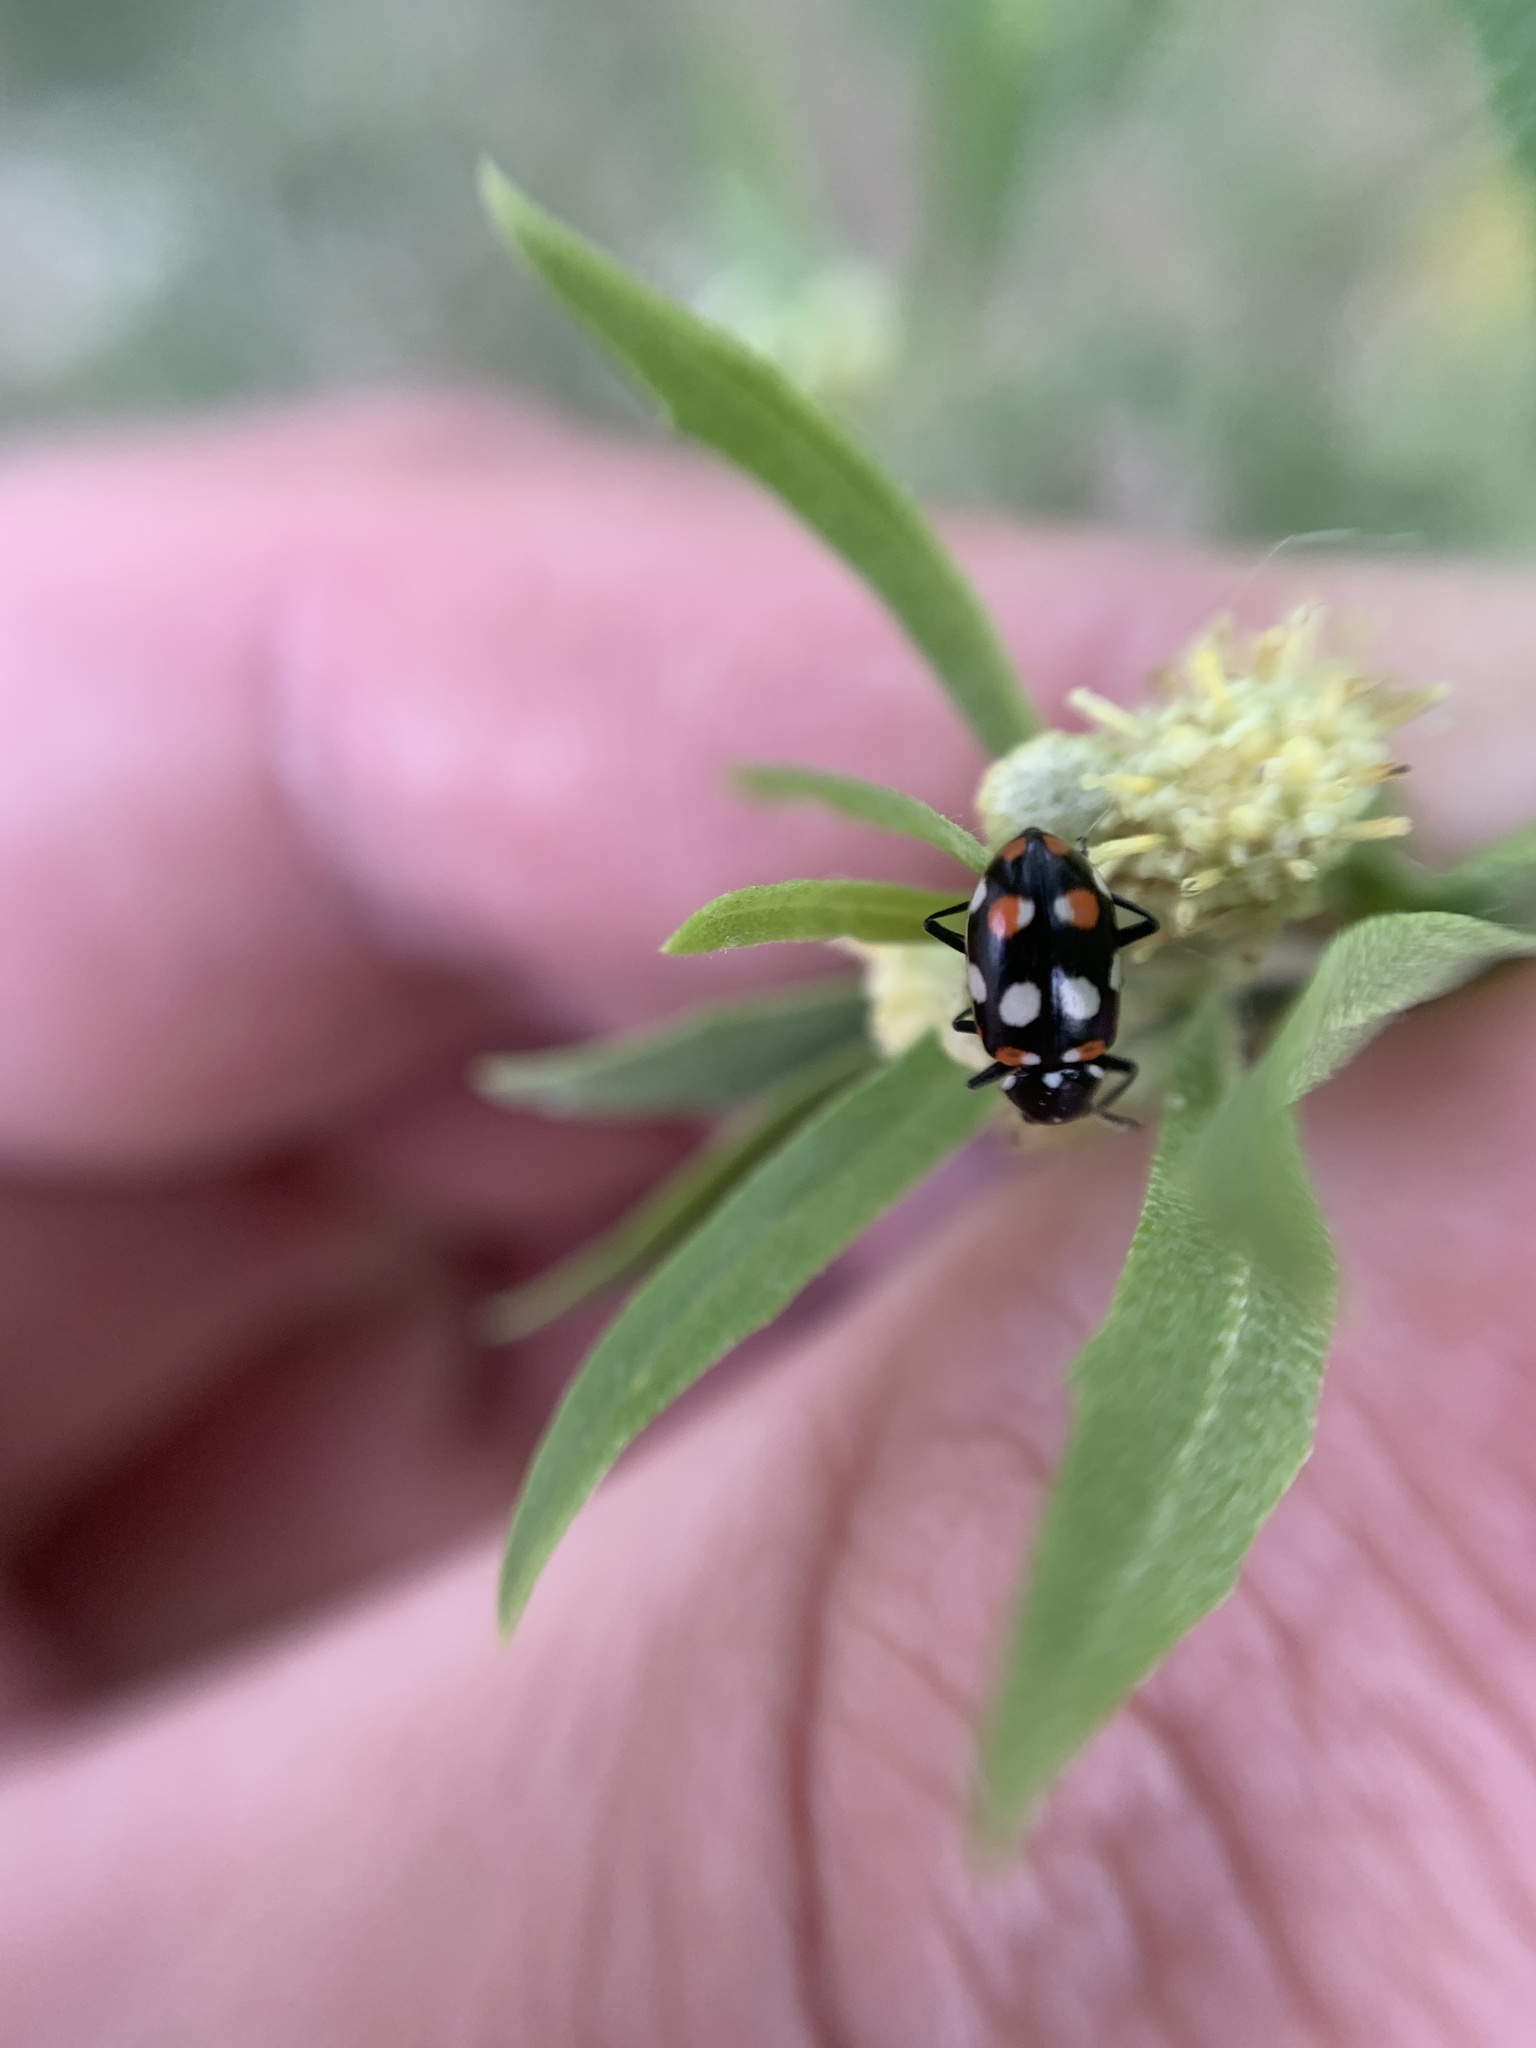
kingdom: Animalia
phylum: Arthropoda
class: Insecta
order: Coleoptera
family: Coccinellidae
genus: Eriopis
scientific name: Eriopis connexa
